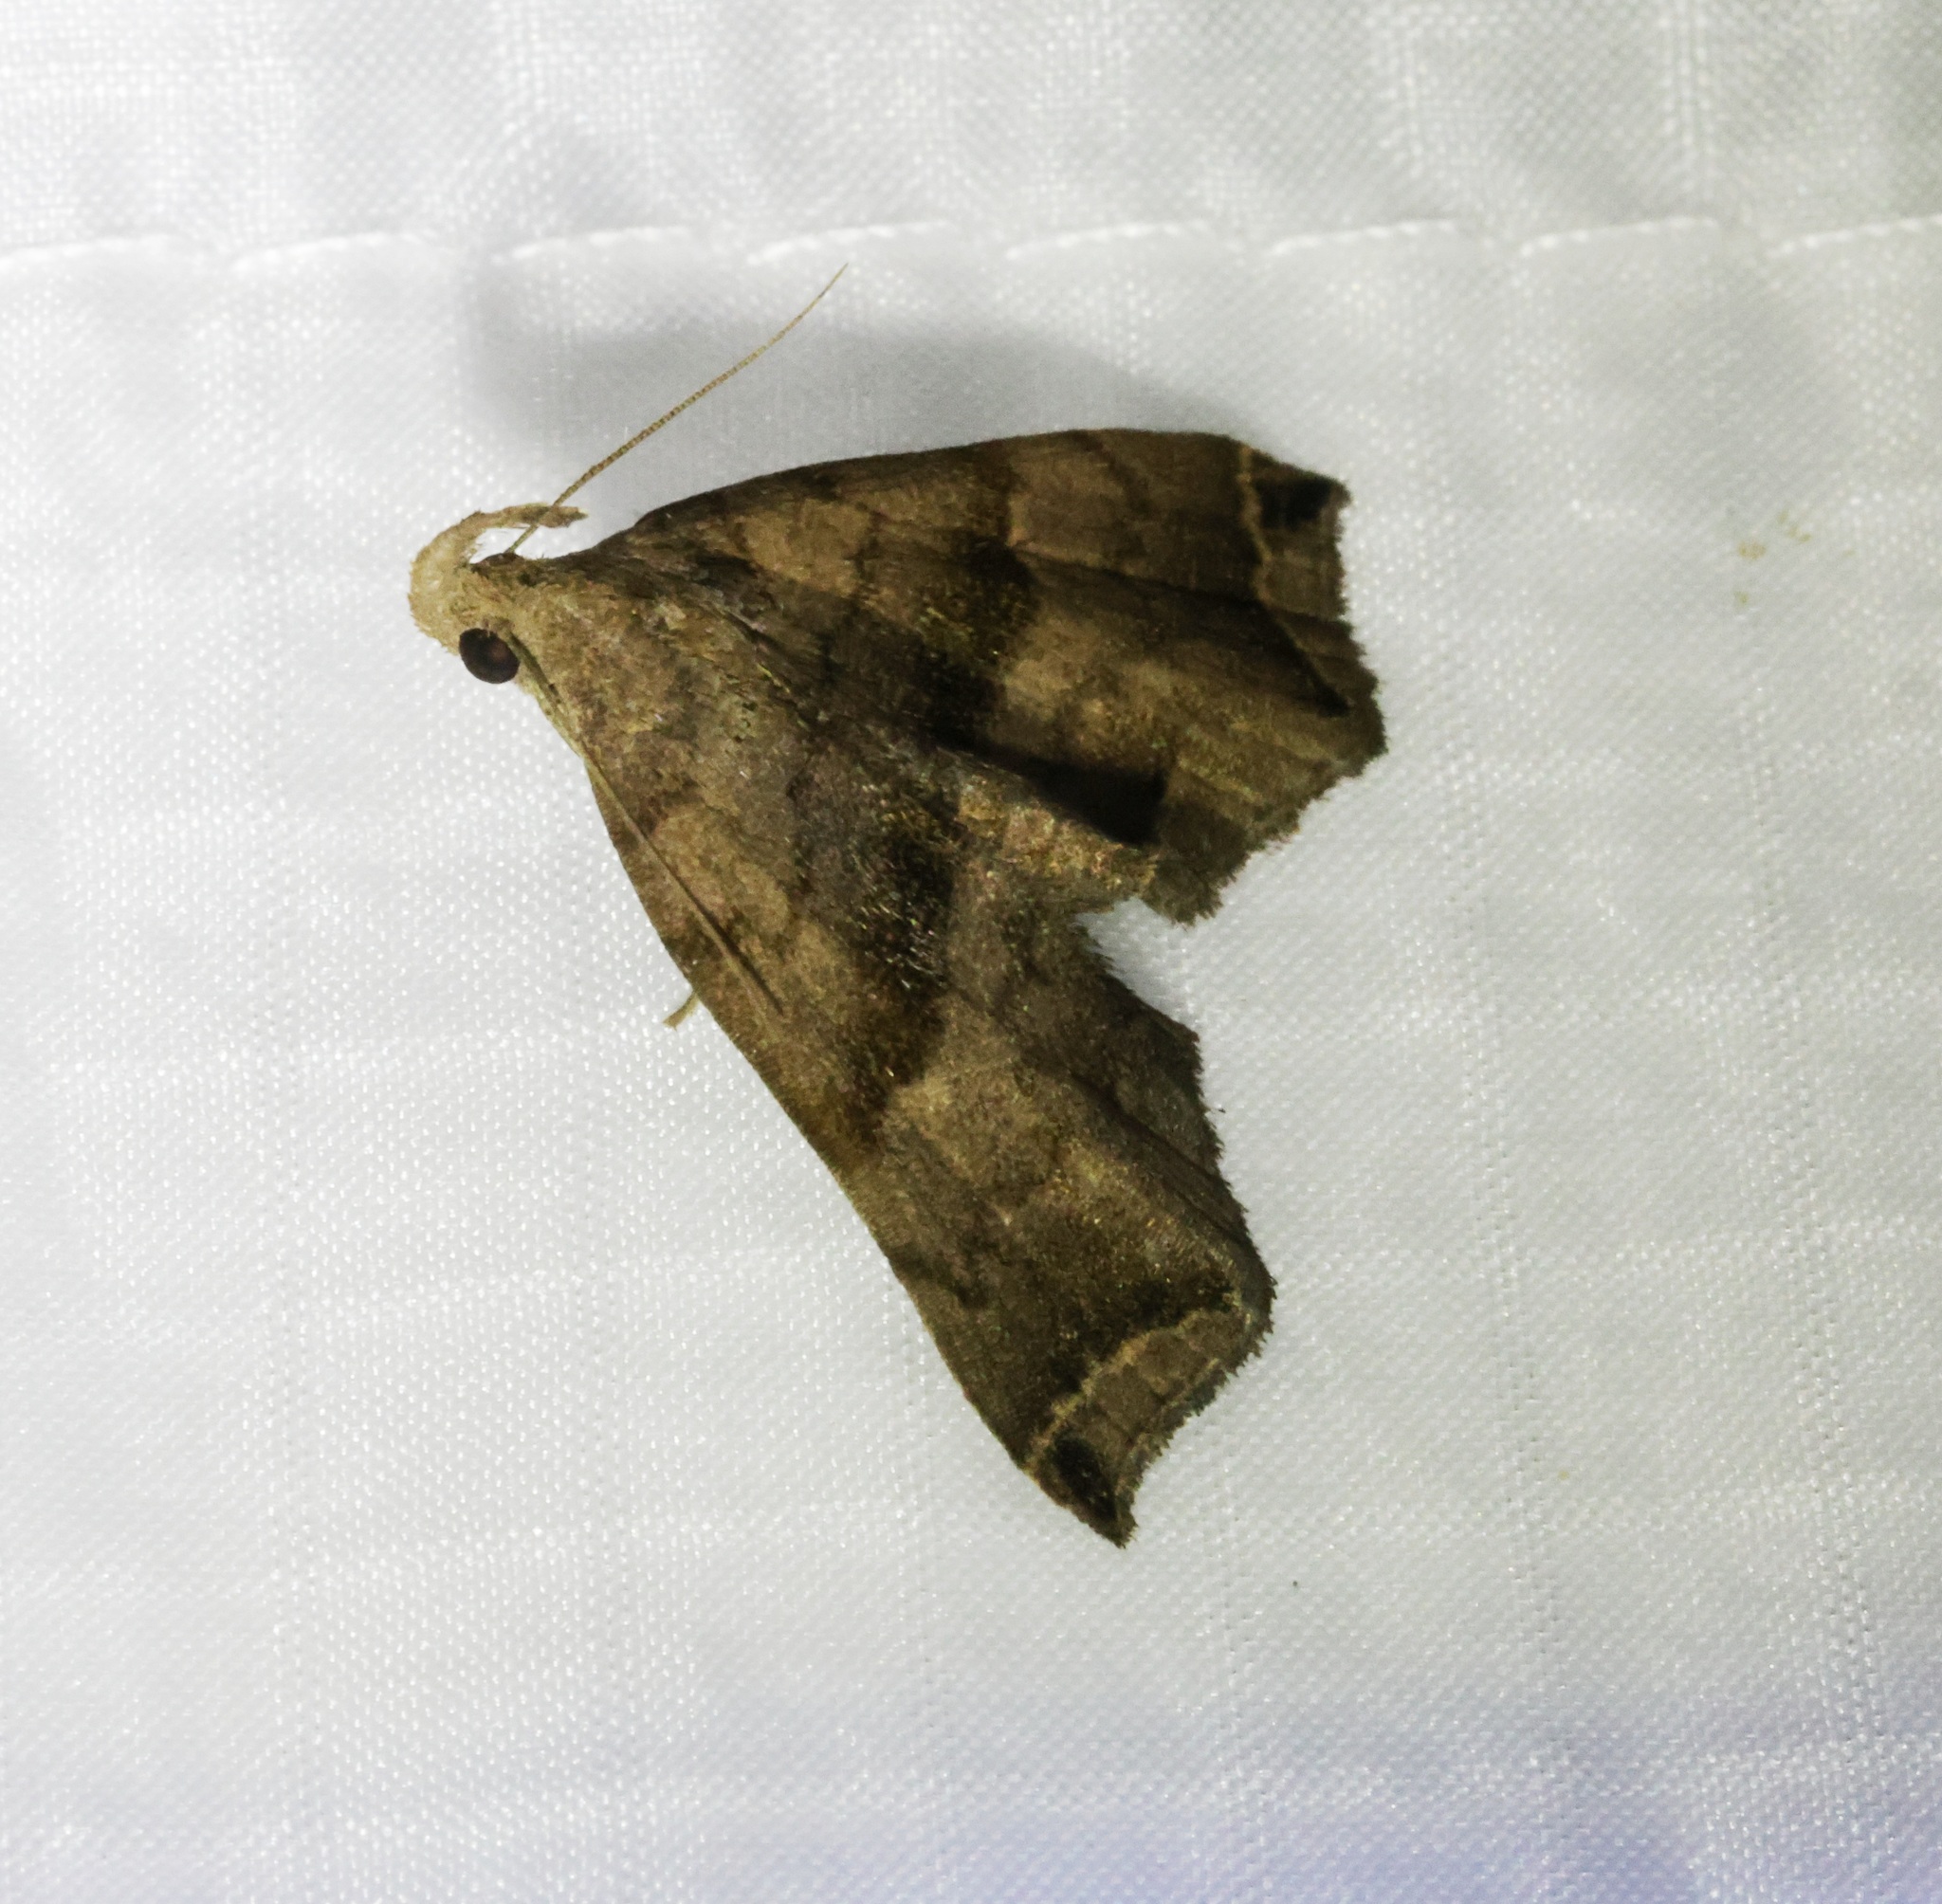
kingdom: Animalia
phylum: Arthropoda
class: Insecta
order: Lepidoptera
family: Erebidae
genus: Polypogon
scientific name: Polypogon biasalis
